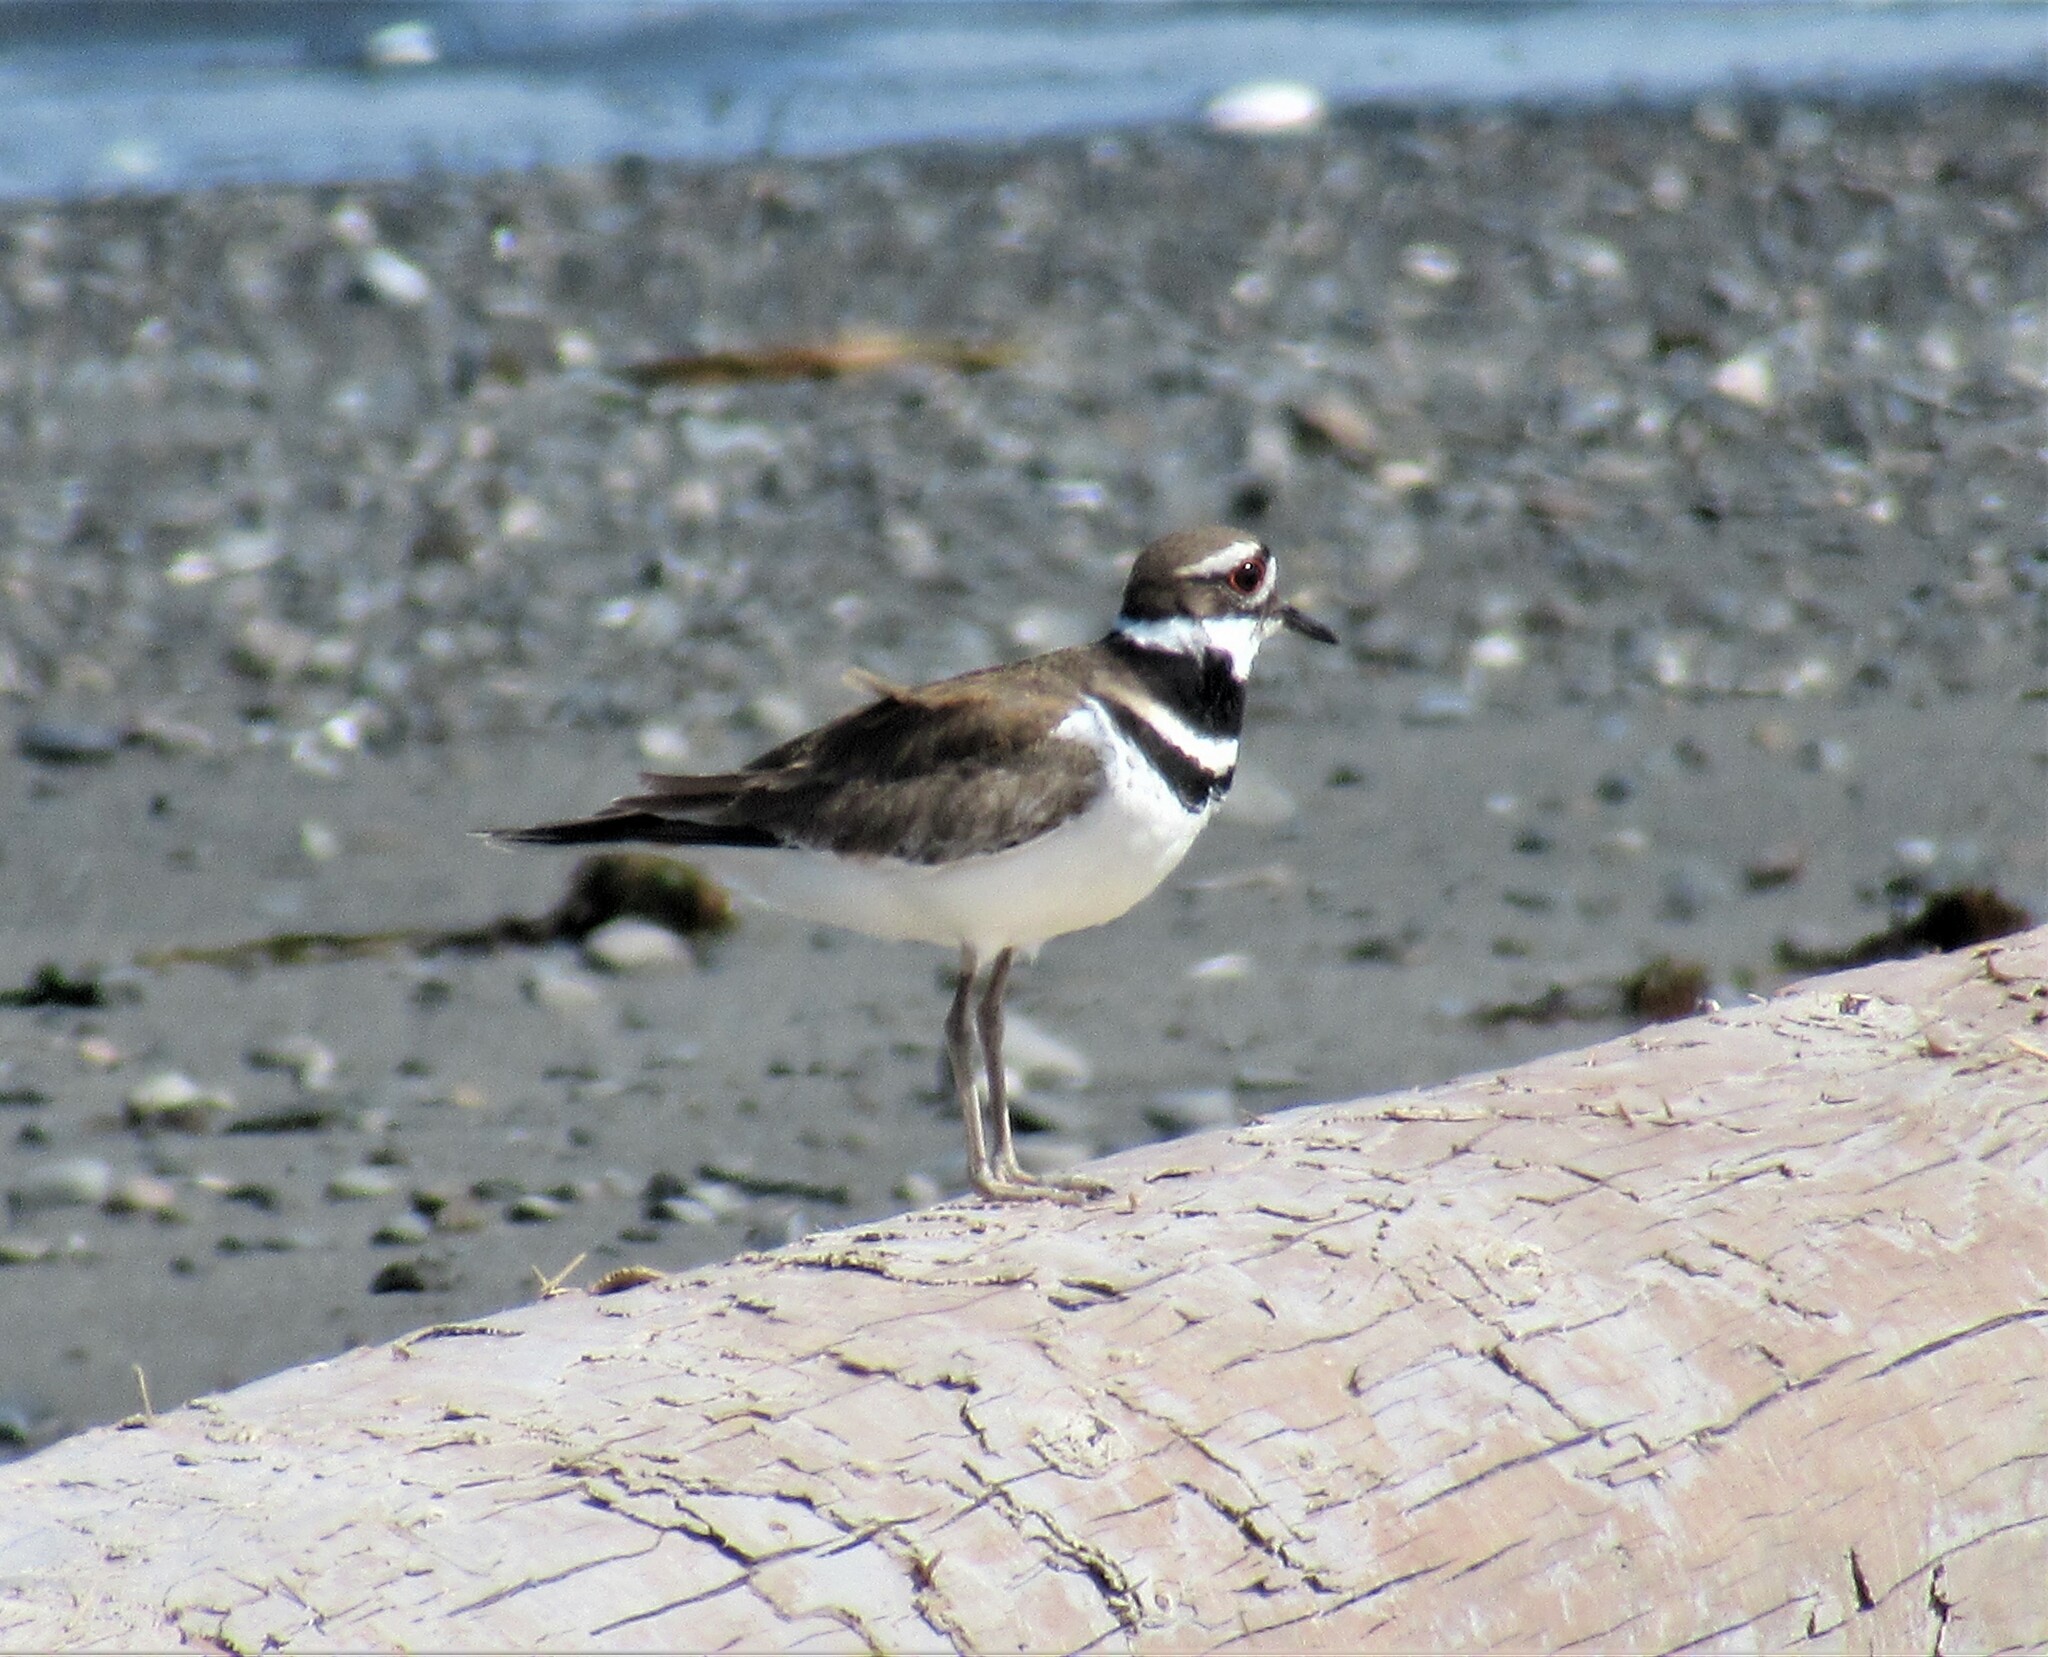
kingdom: Animalia
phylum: Chordata
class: Aves
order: Charadriiformes
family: Charadriidae
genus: Charadrius
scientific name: Charadrius vociferus
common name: Killdeer
